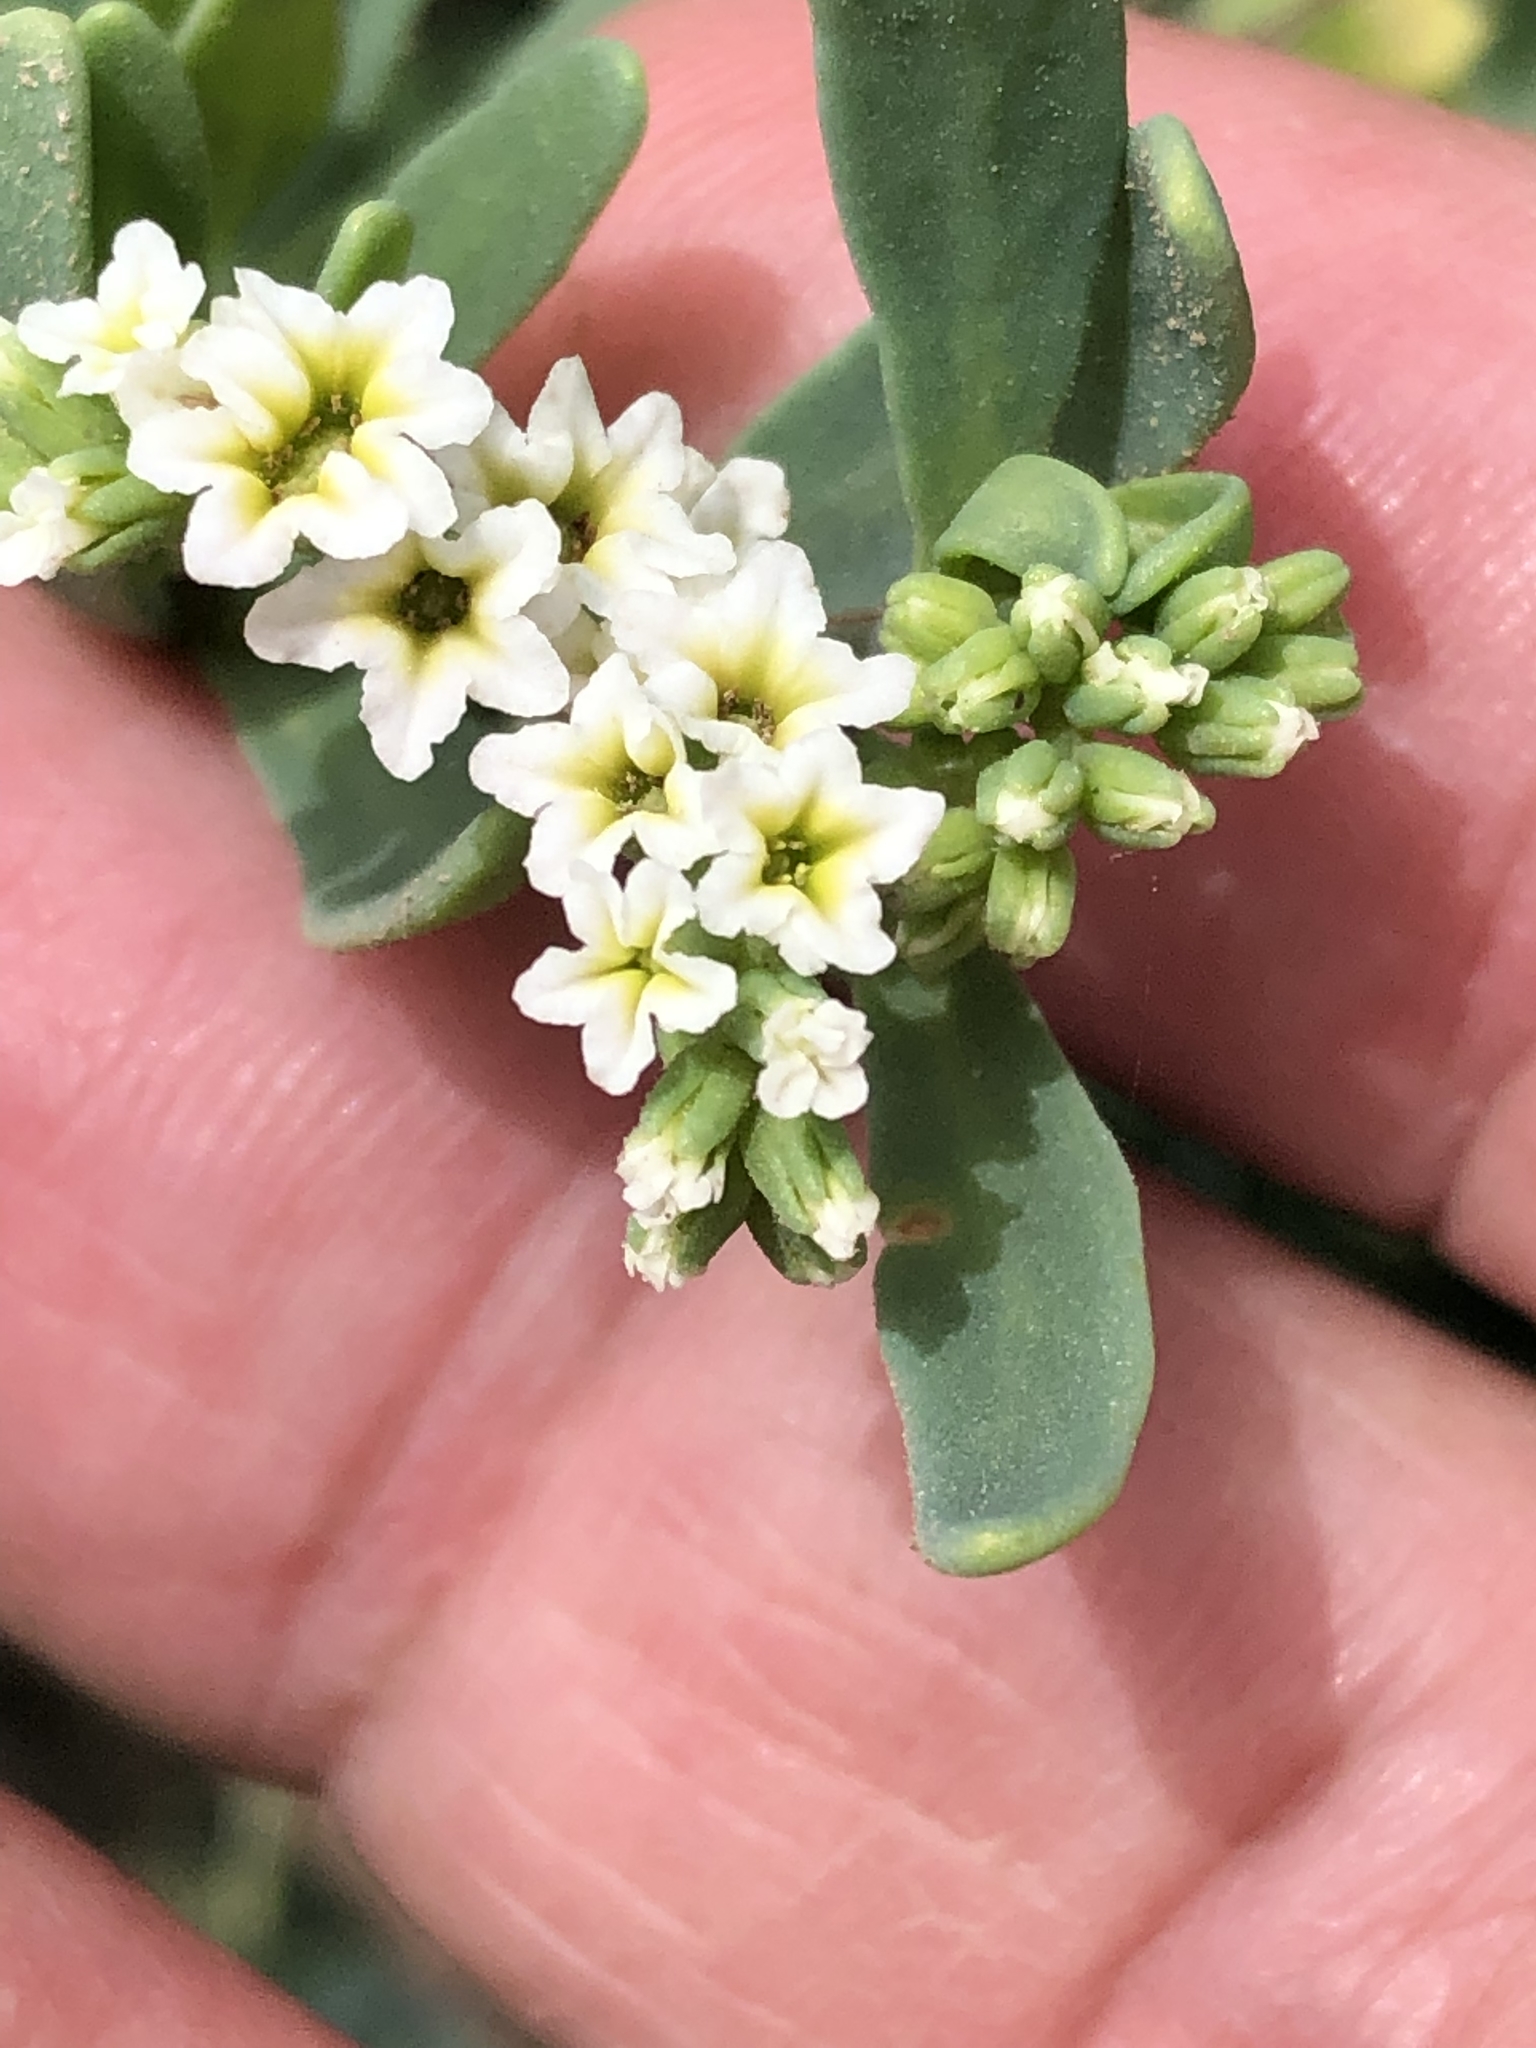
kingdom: Plantae
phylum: Tracheophyta
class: Magnoliopsida
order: Boraginales
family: Heliotropiaceae
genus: Heliotropium
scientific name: Heliotropium curassavicum
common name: Seaside heliotrope
